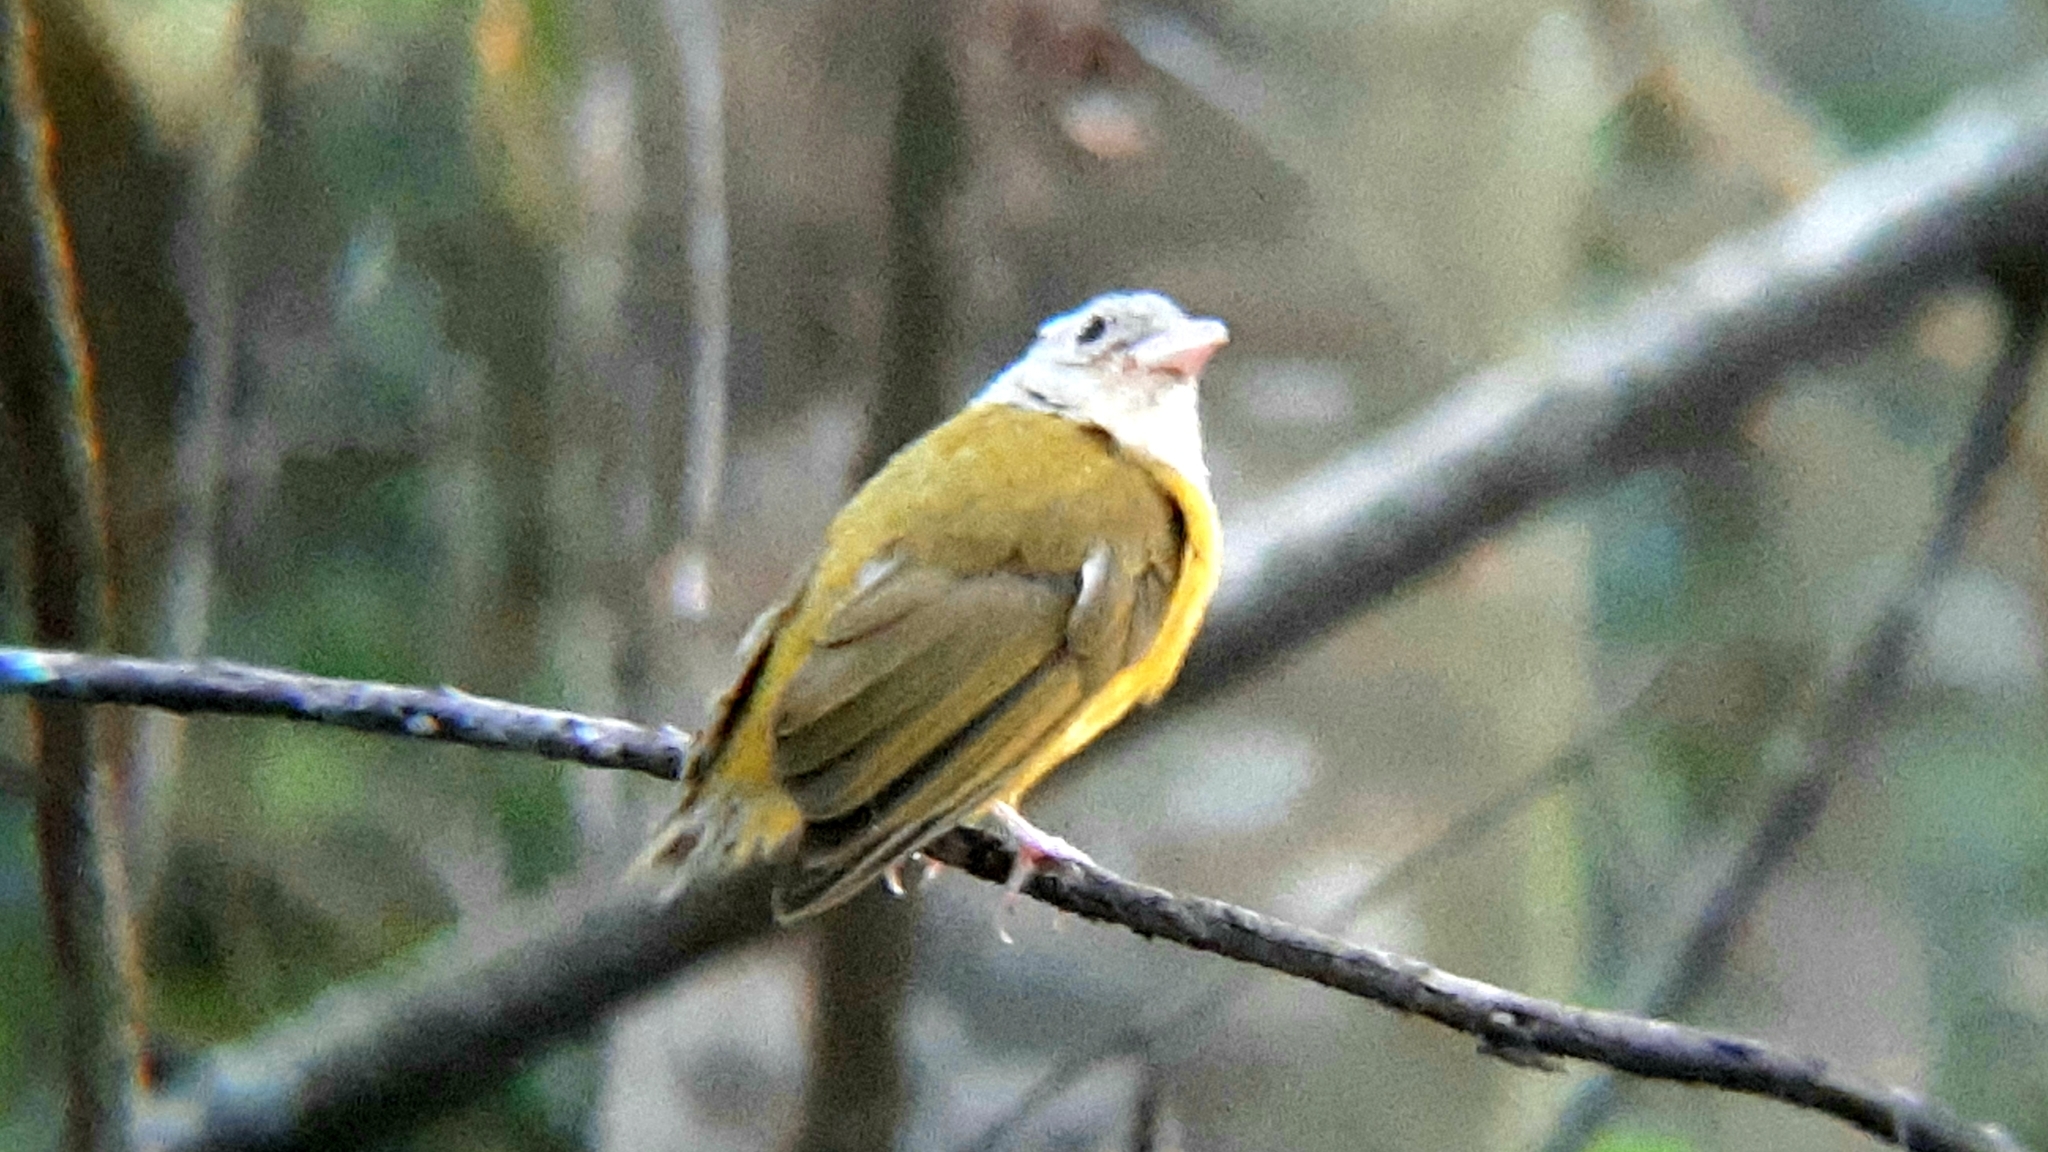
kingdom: Animalia
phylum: Chordata
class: Aves
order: Passeriformes
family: Thraupidae
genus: Eucometis
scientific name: Eucometis penicillata
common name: Grey-headed tanager
